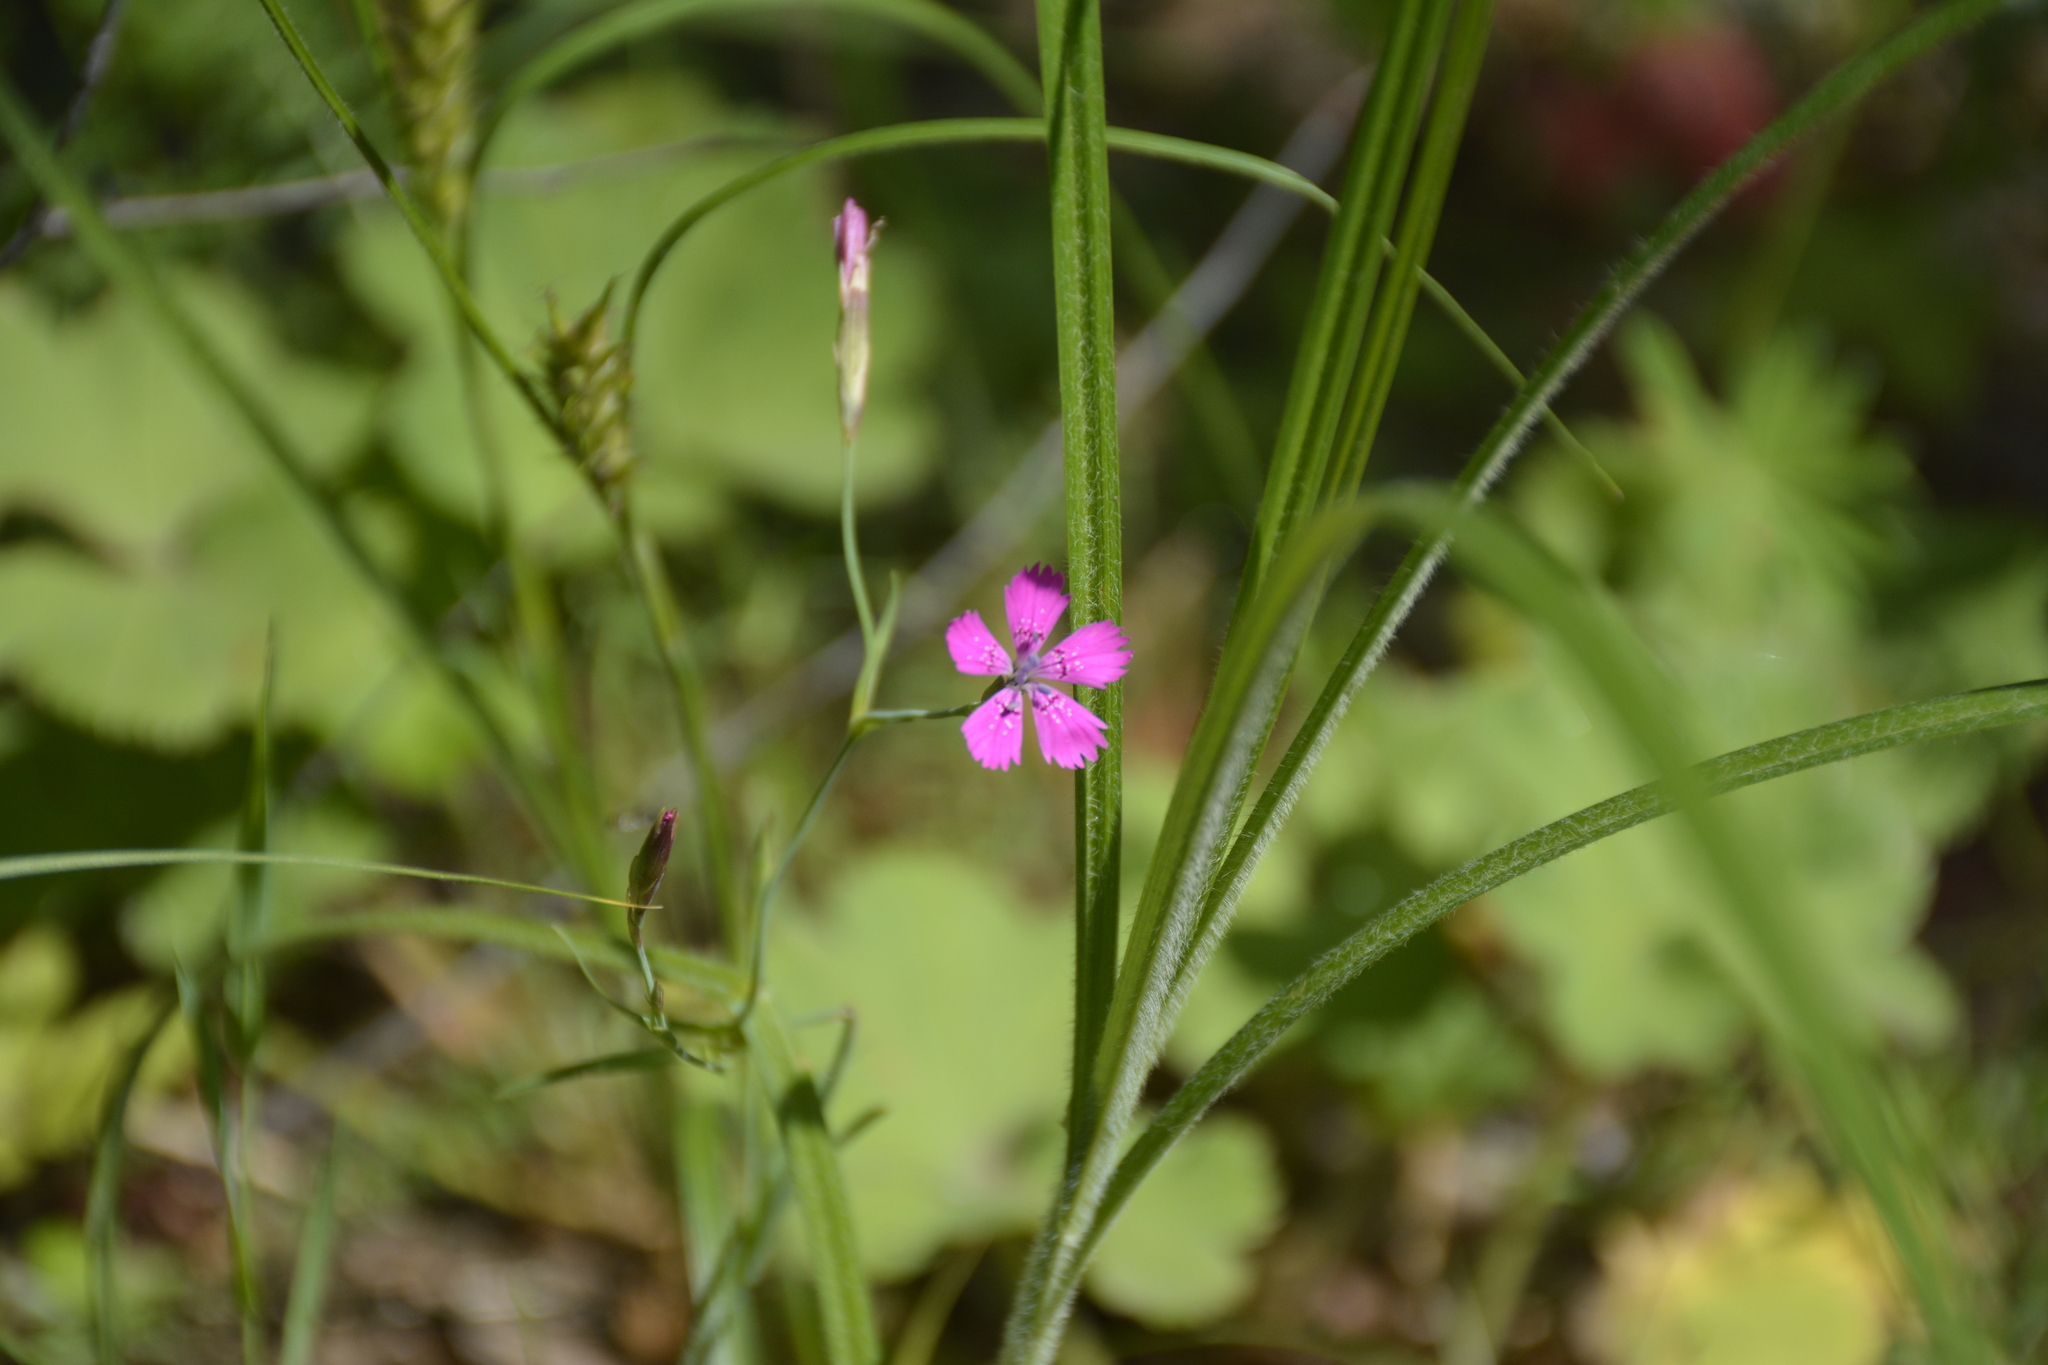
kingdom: Plantae
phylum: Tracheophyta
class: Magnoliopsida
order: Caryophyllales
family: Caryophyllaceae
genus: Dianthus
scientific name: Dianthus deltoides
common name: Maiden pink
